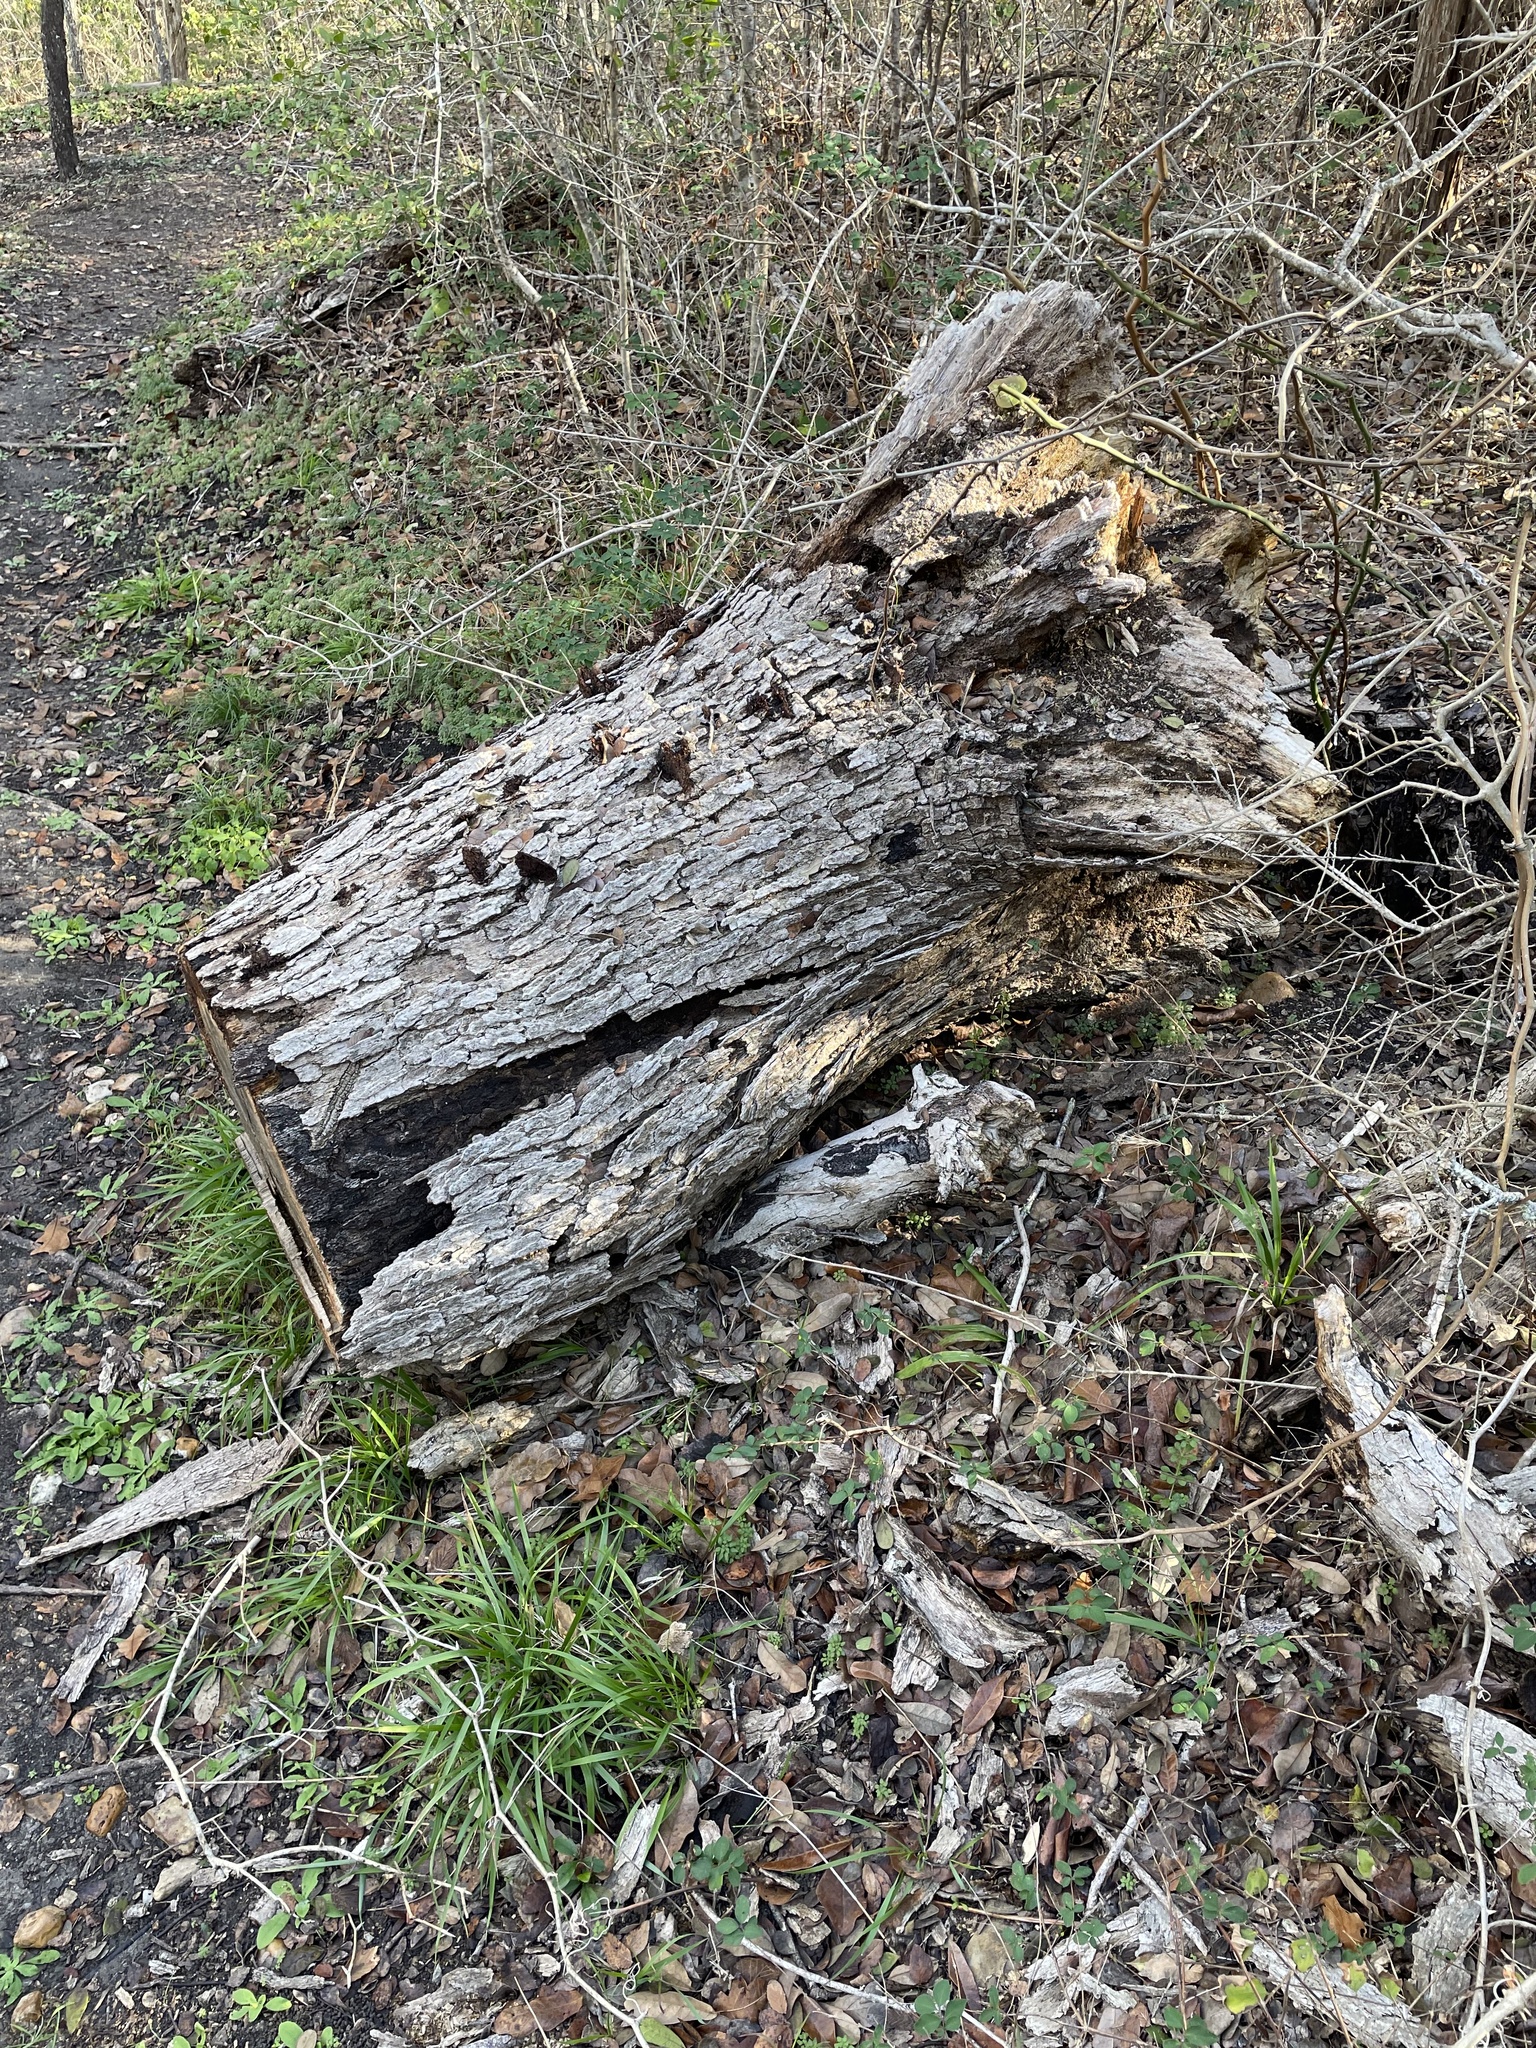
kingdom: Plantae
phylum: Tracheophyta
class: Magnoliopsida
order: Fagales
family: Fagaceae
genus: Quercus
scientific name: Quercus sinuata
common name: Durand oak
